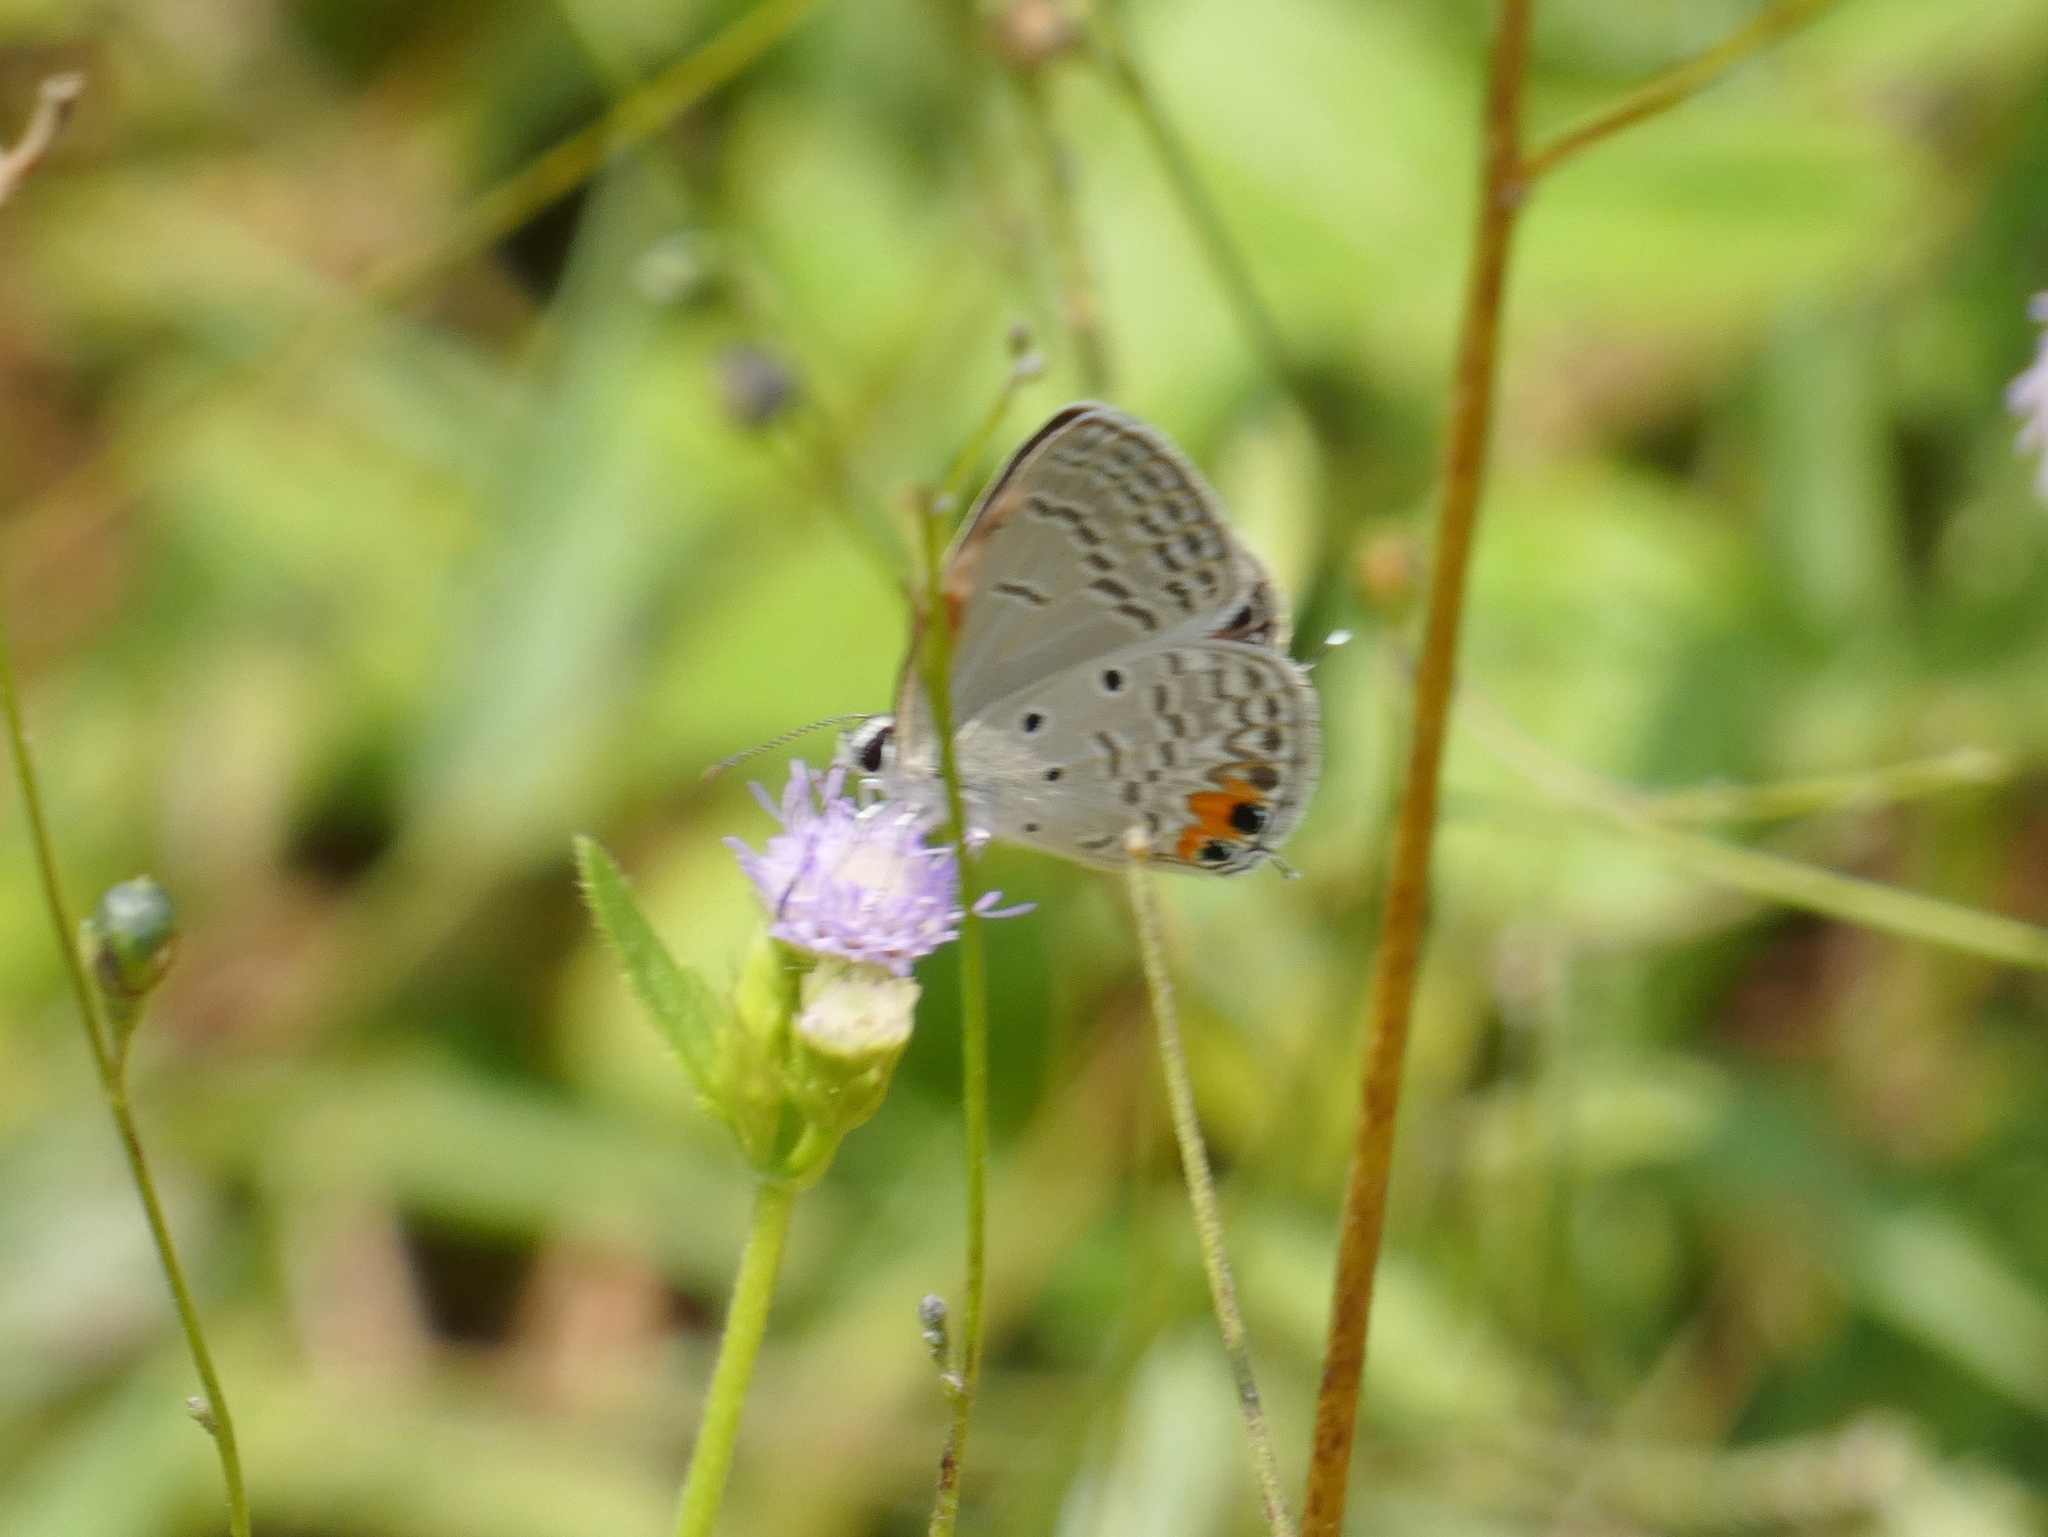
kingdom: Animalia
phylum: Arthropoda
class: Insecta
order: Lepidoptera
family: Lycaenidae
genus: Euchrysops
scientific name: Euchrysops osiris
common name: African blue
